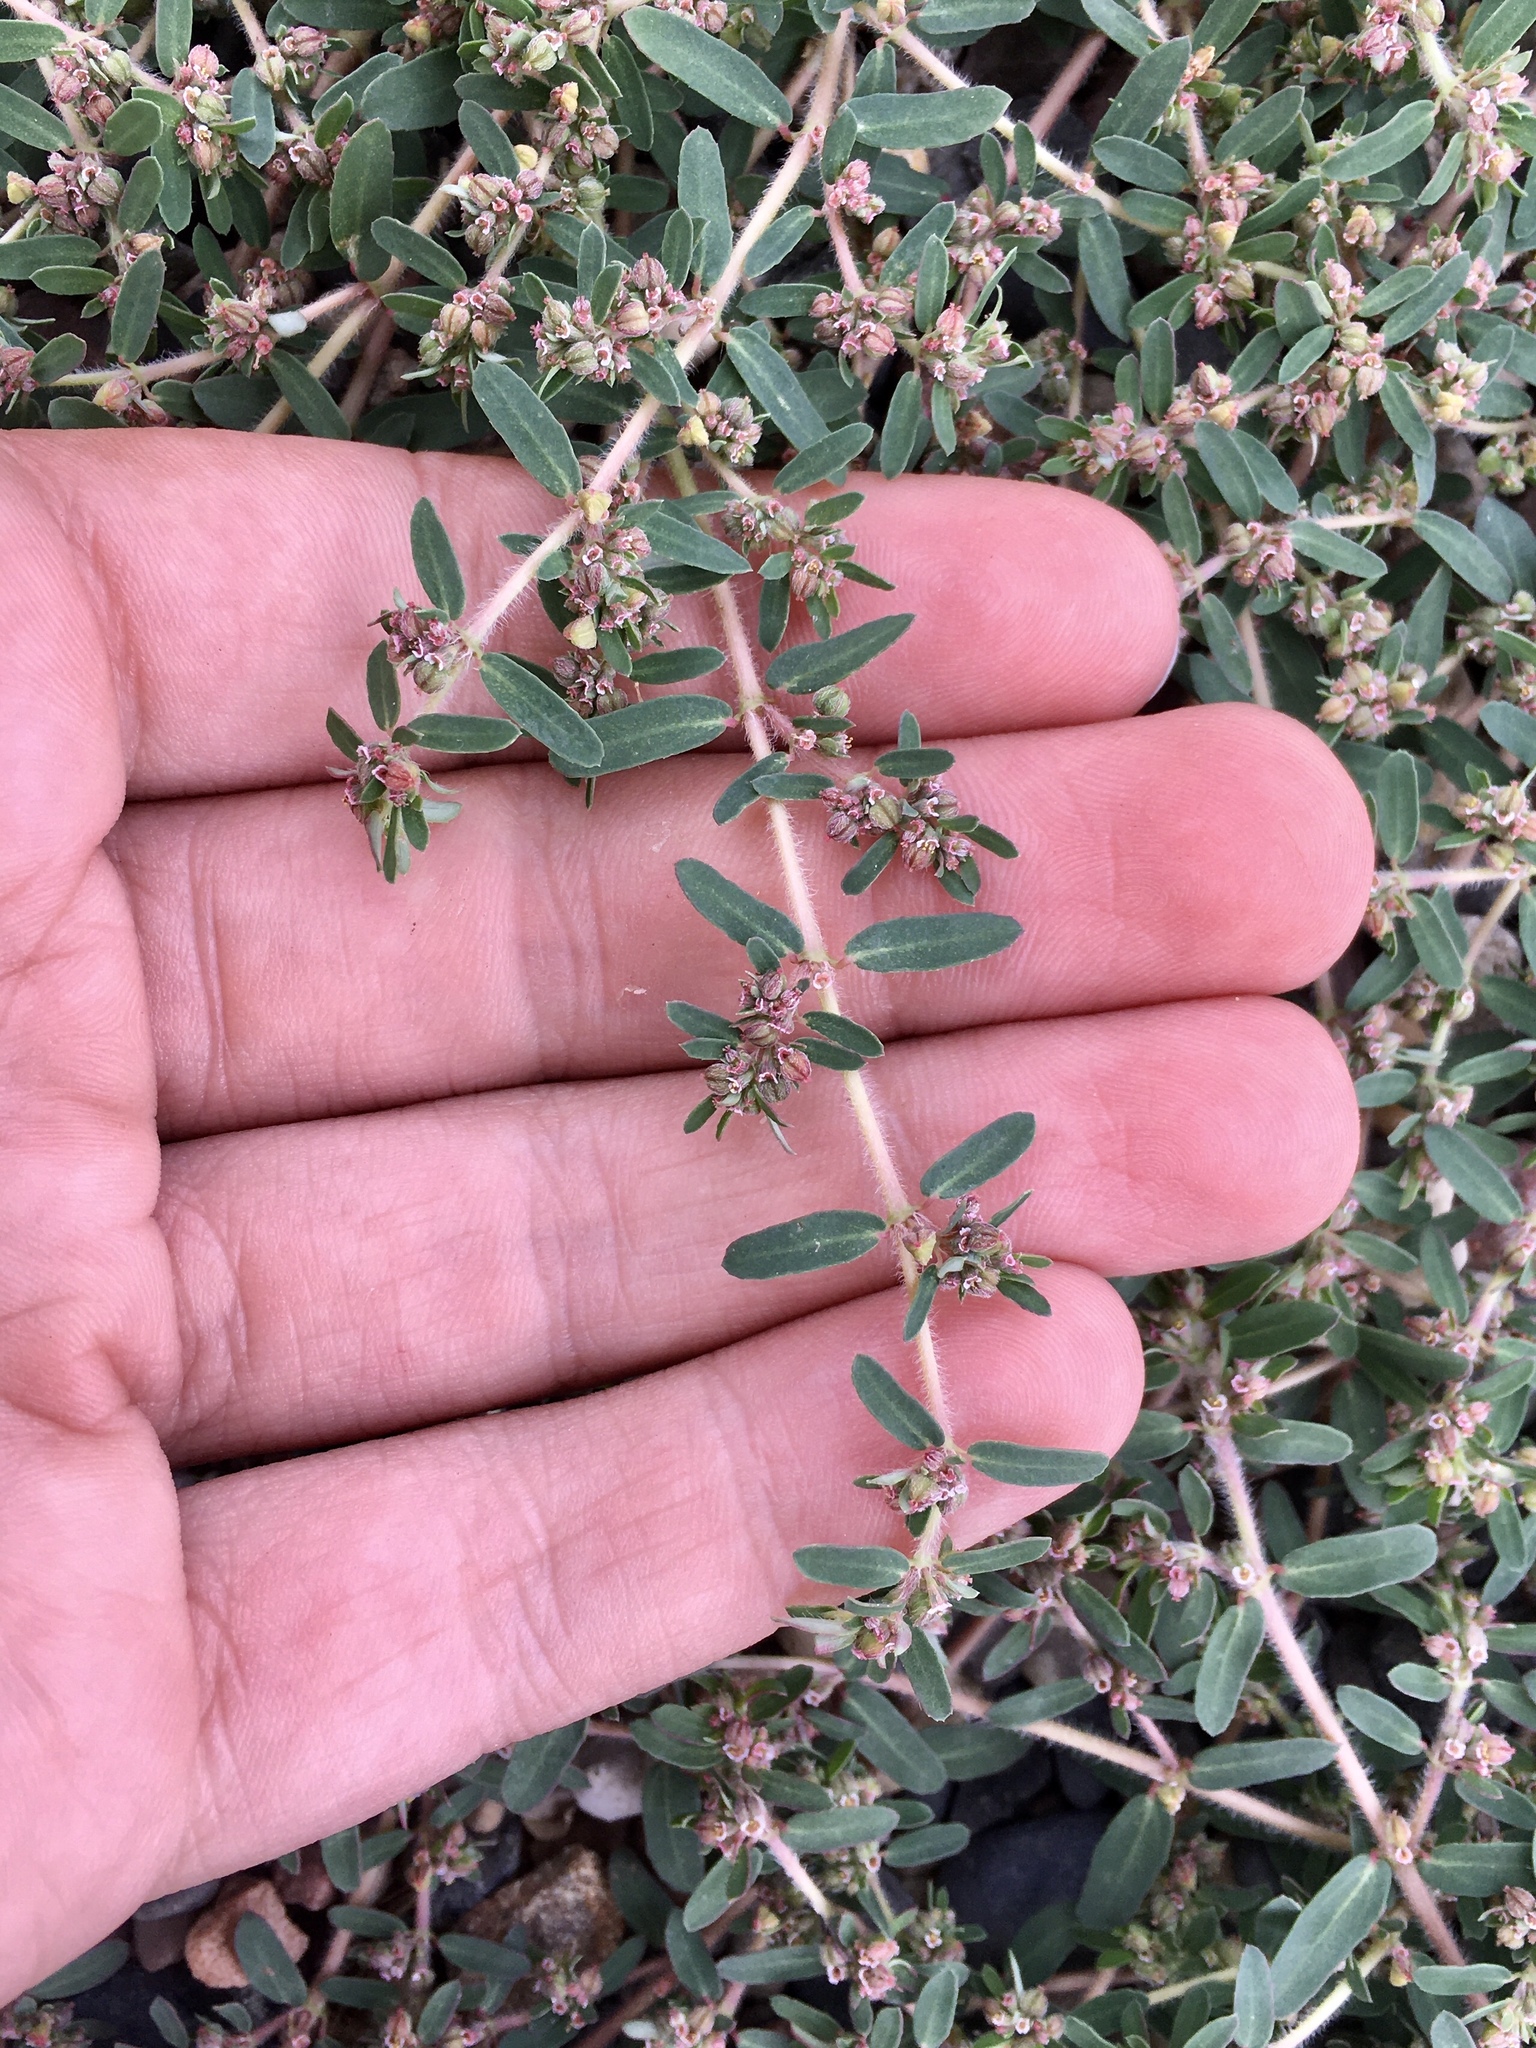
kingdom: Plantae
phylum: Tracheophyta
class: Magnoliopsida
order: Malpighiales
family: Euphorbiaceae
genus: Euphorbia
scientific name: Euphorbia maculata
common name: Spotted spurge
